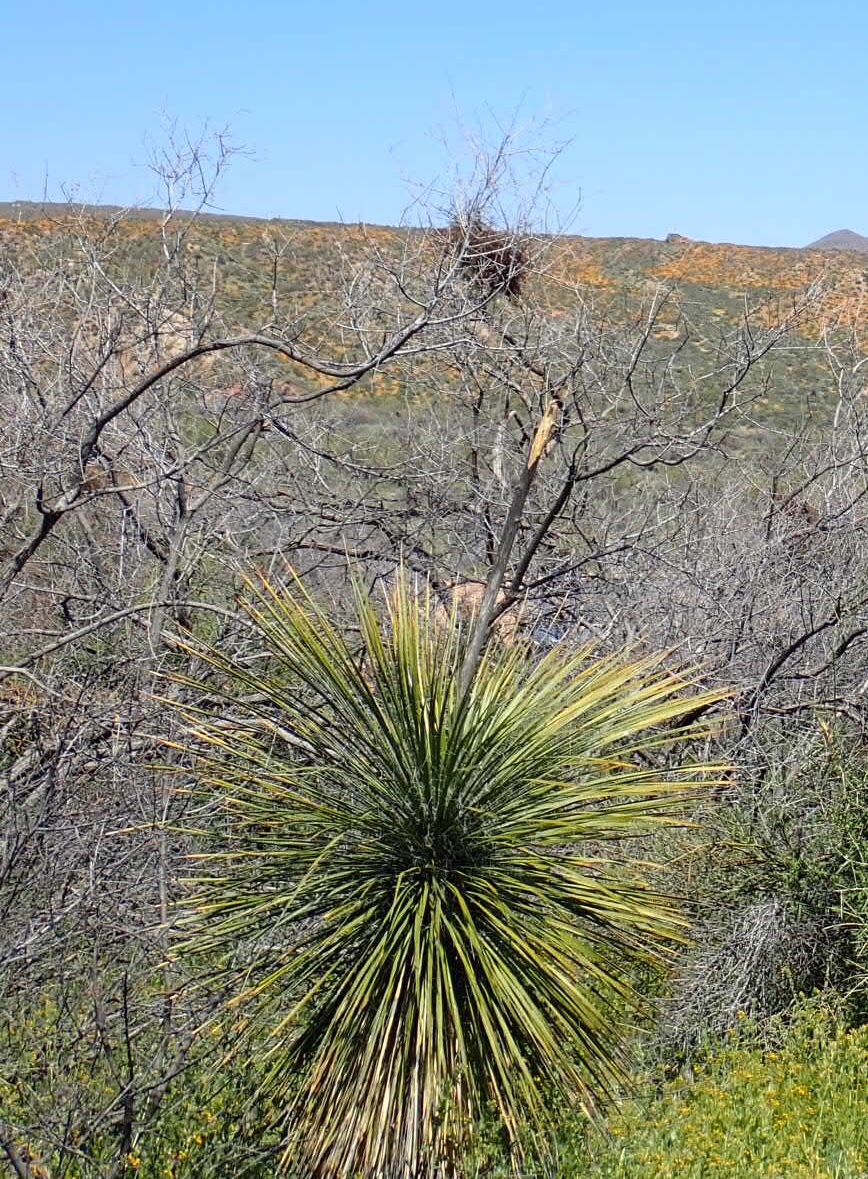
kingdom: Plantae
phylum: Tracheophyta
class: Liliopsida
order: Asparagales
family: Asparagaceae
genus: Yucca
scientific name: Yucca elata
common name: Palmella
